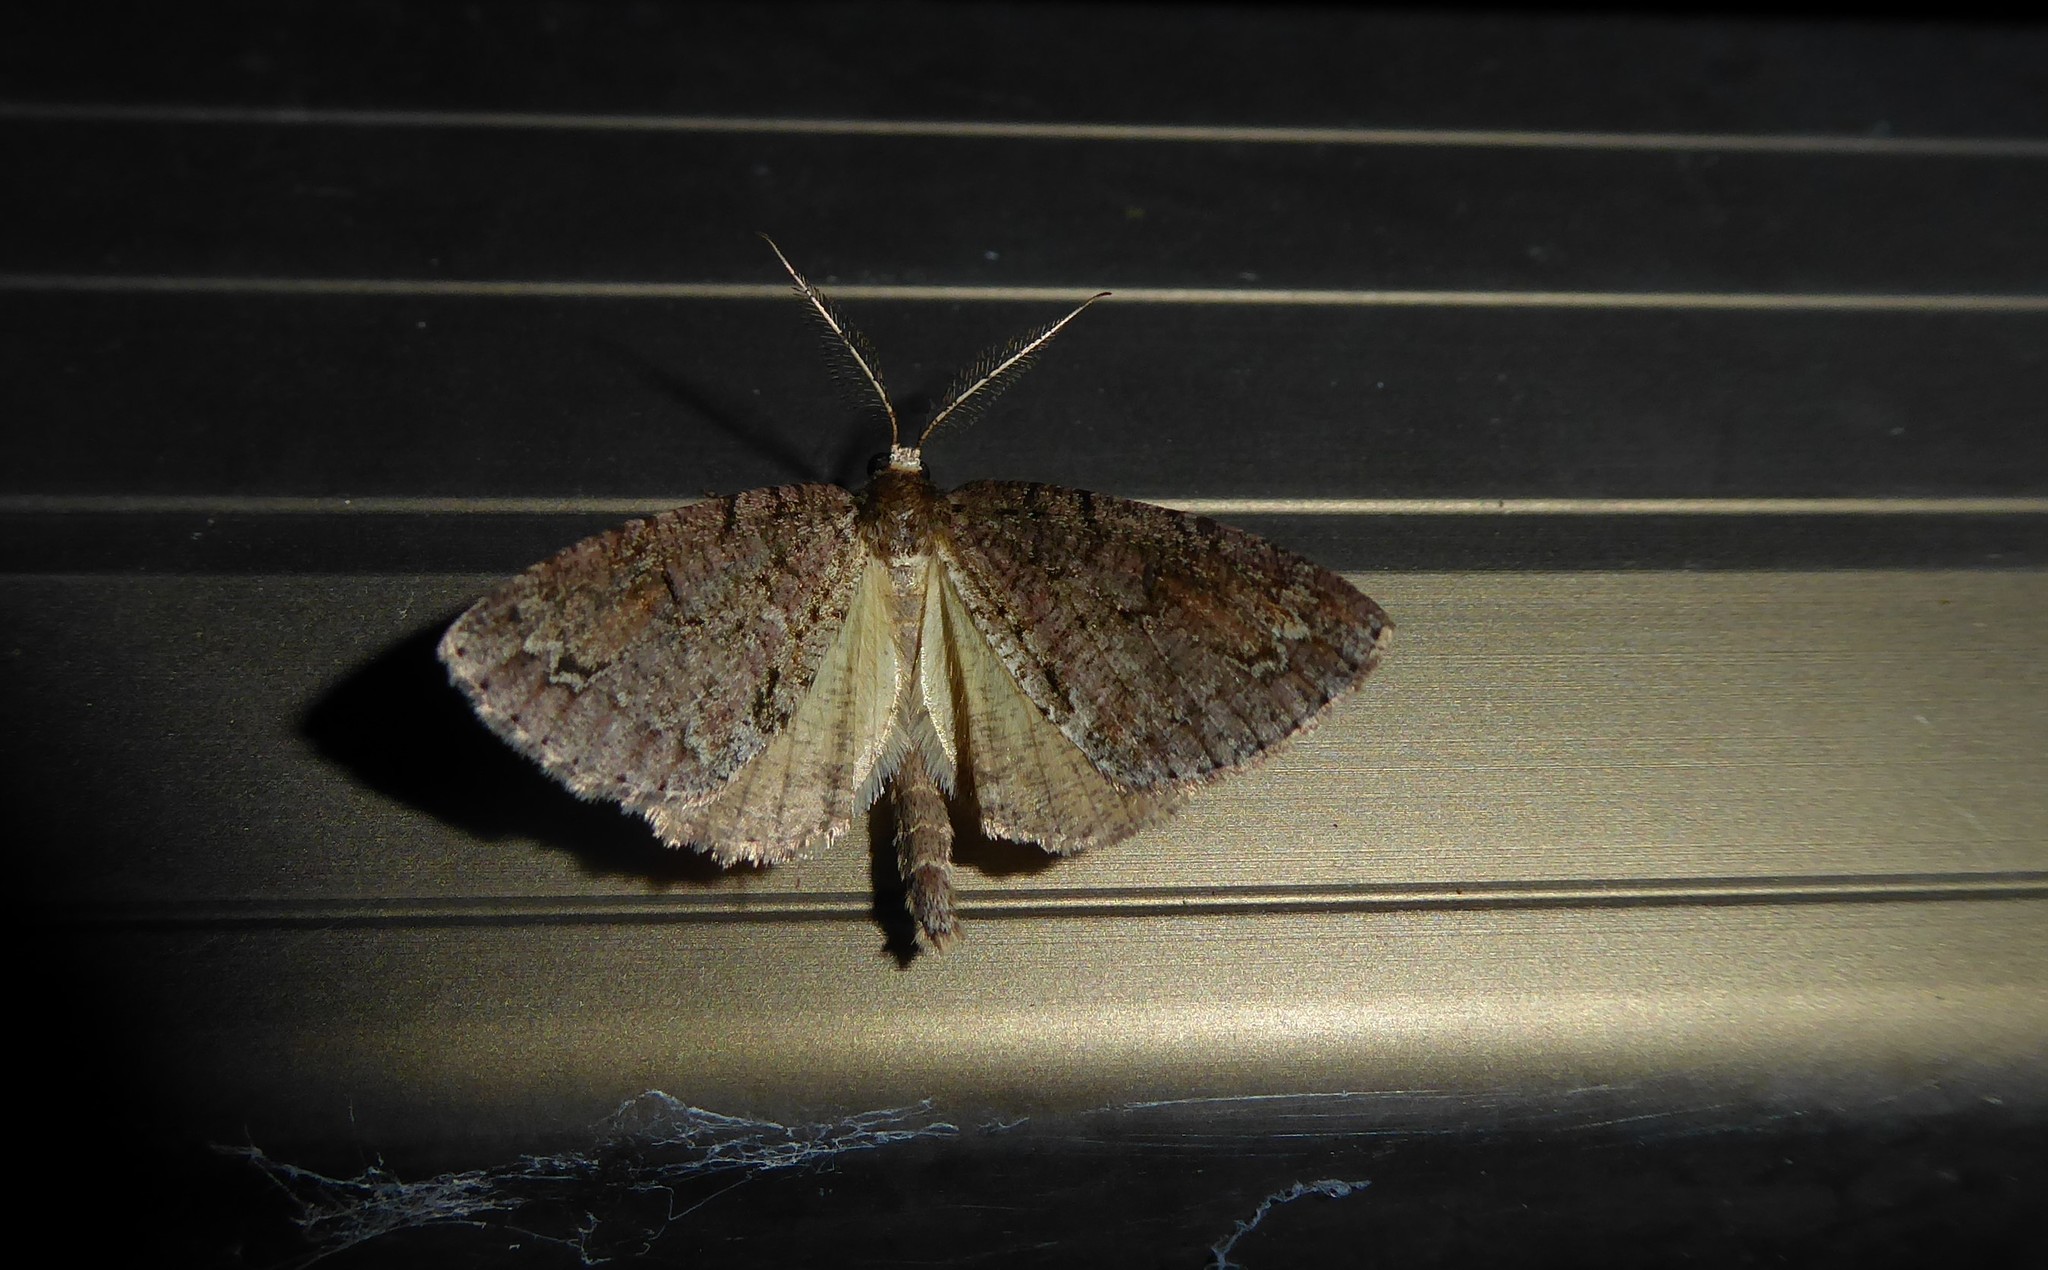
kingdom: Animalia
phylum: Arthropoda
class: Insecta
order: Lepidoptera
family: Geometridae
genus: Pseudocoremia
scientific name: Pseudocoremia suavis
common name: Common forest looper
